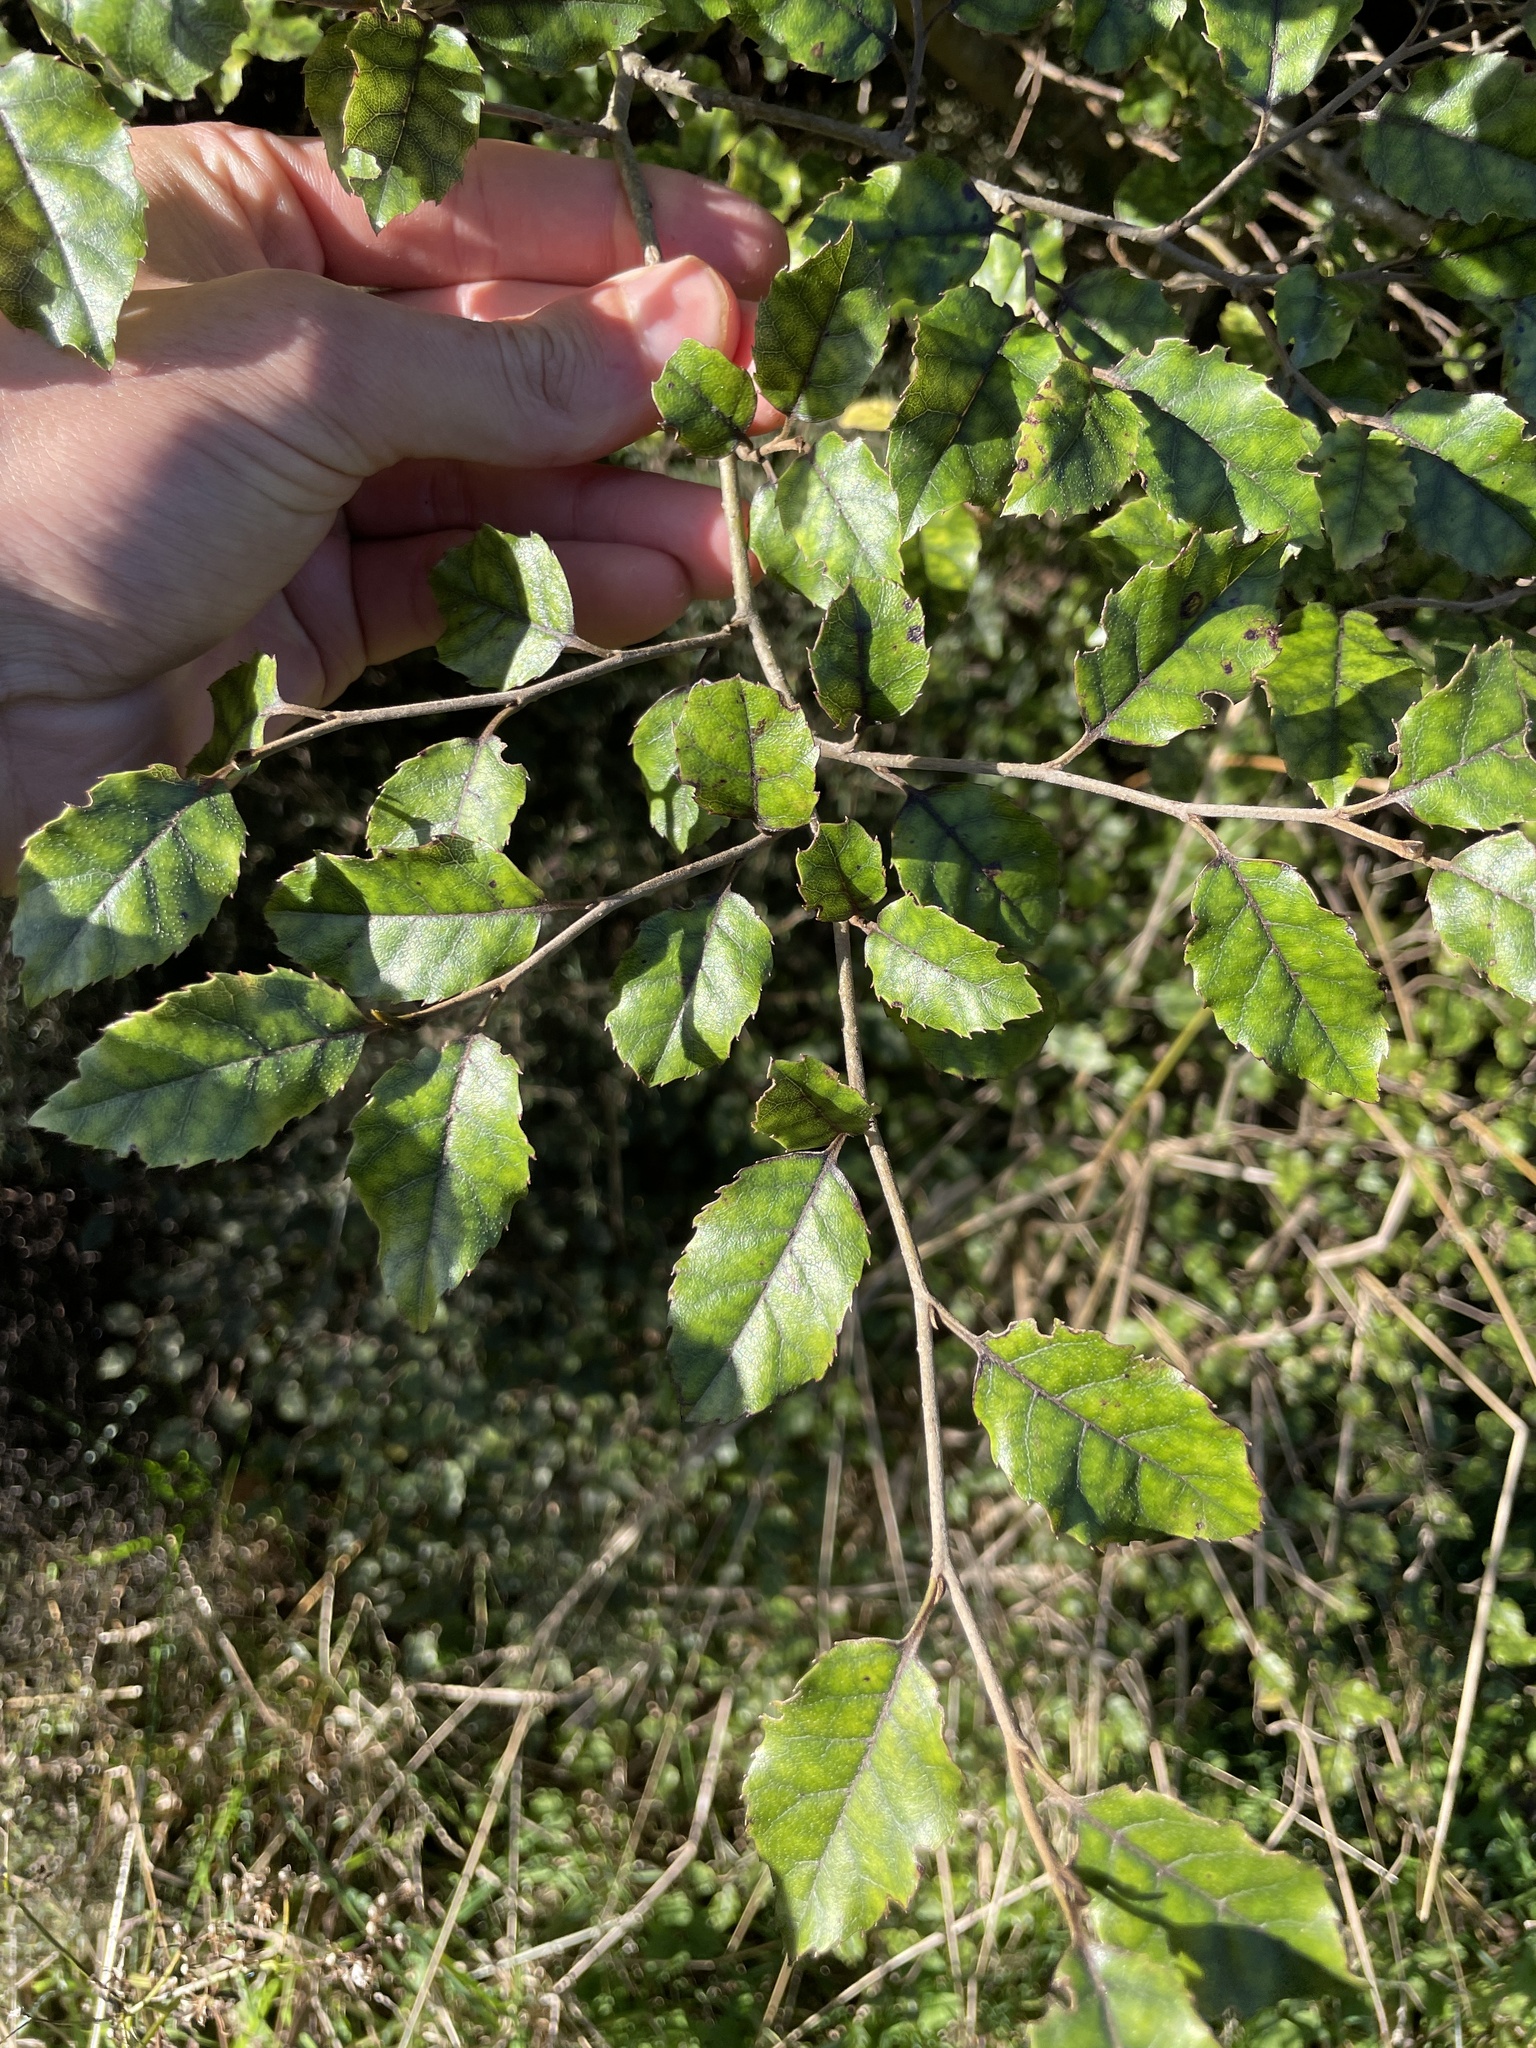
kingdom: Plantae
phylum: Tracheophyta
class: Magnoliopsida
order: Asterales
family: Rousseaceae
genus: Carpodetus
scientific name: Carpodetus serratus
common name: White mapau
